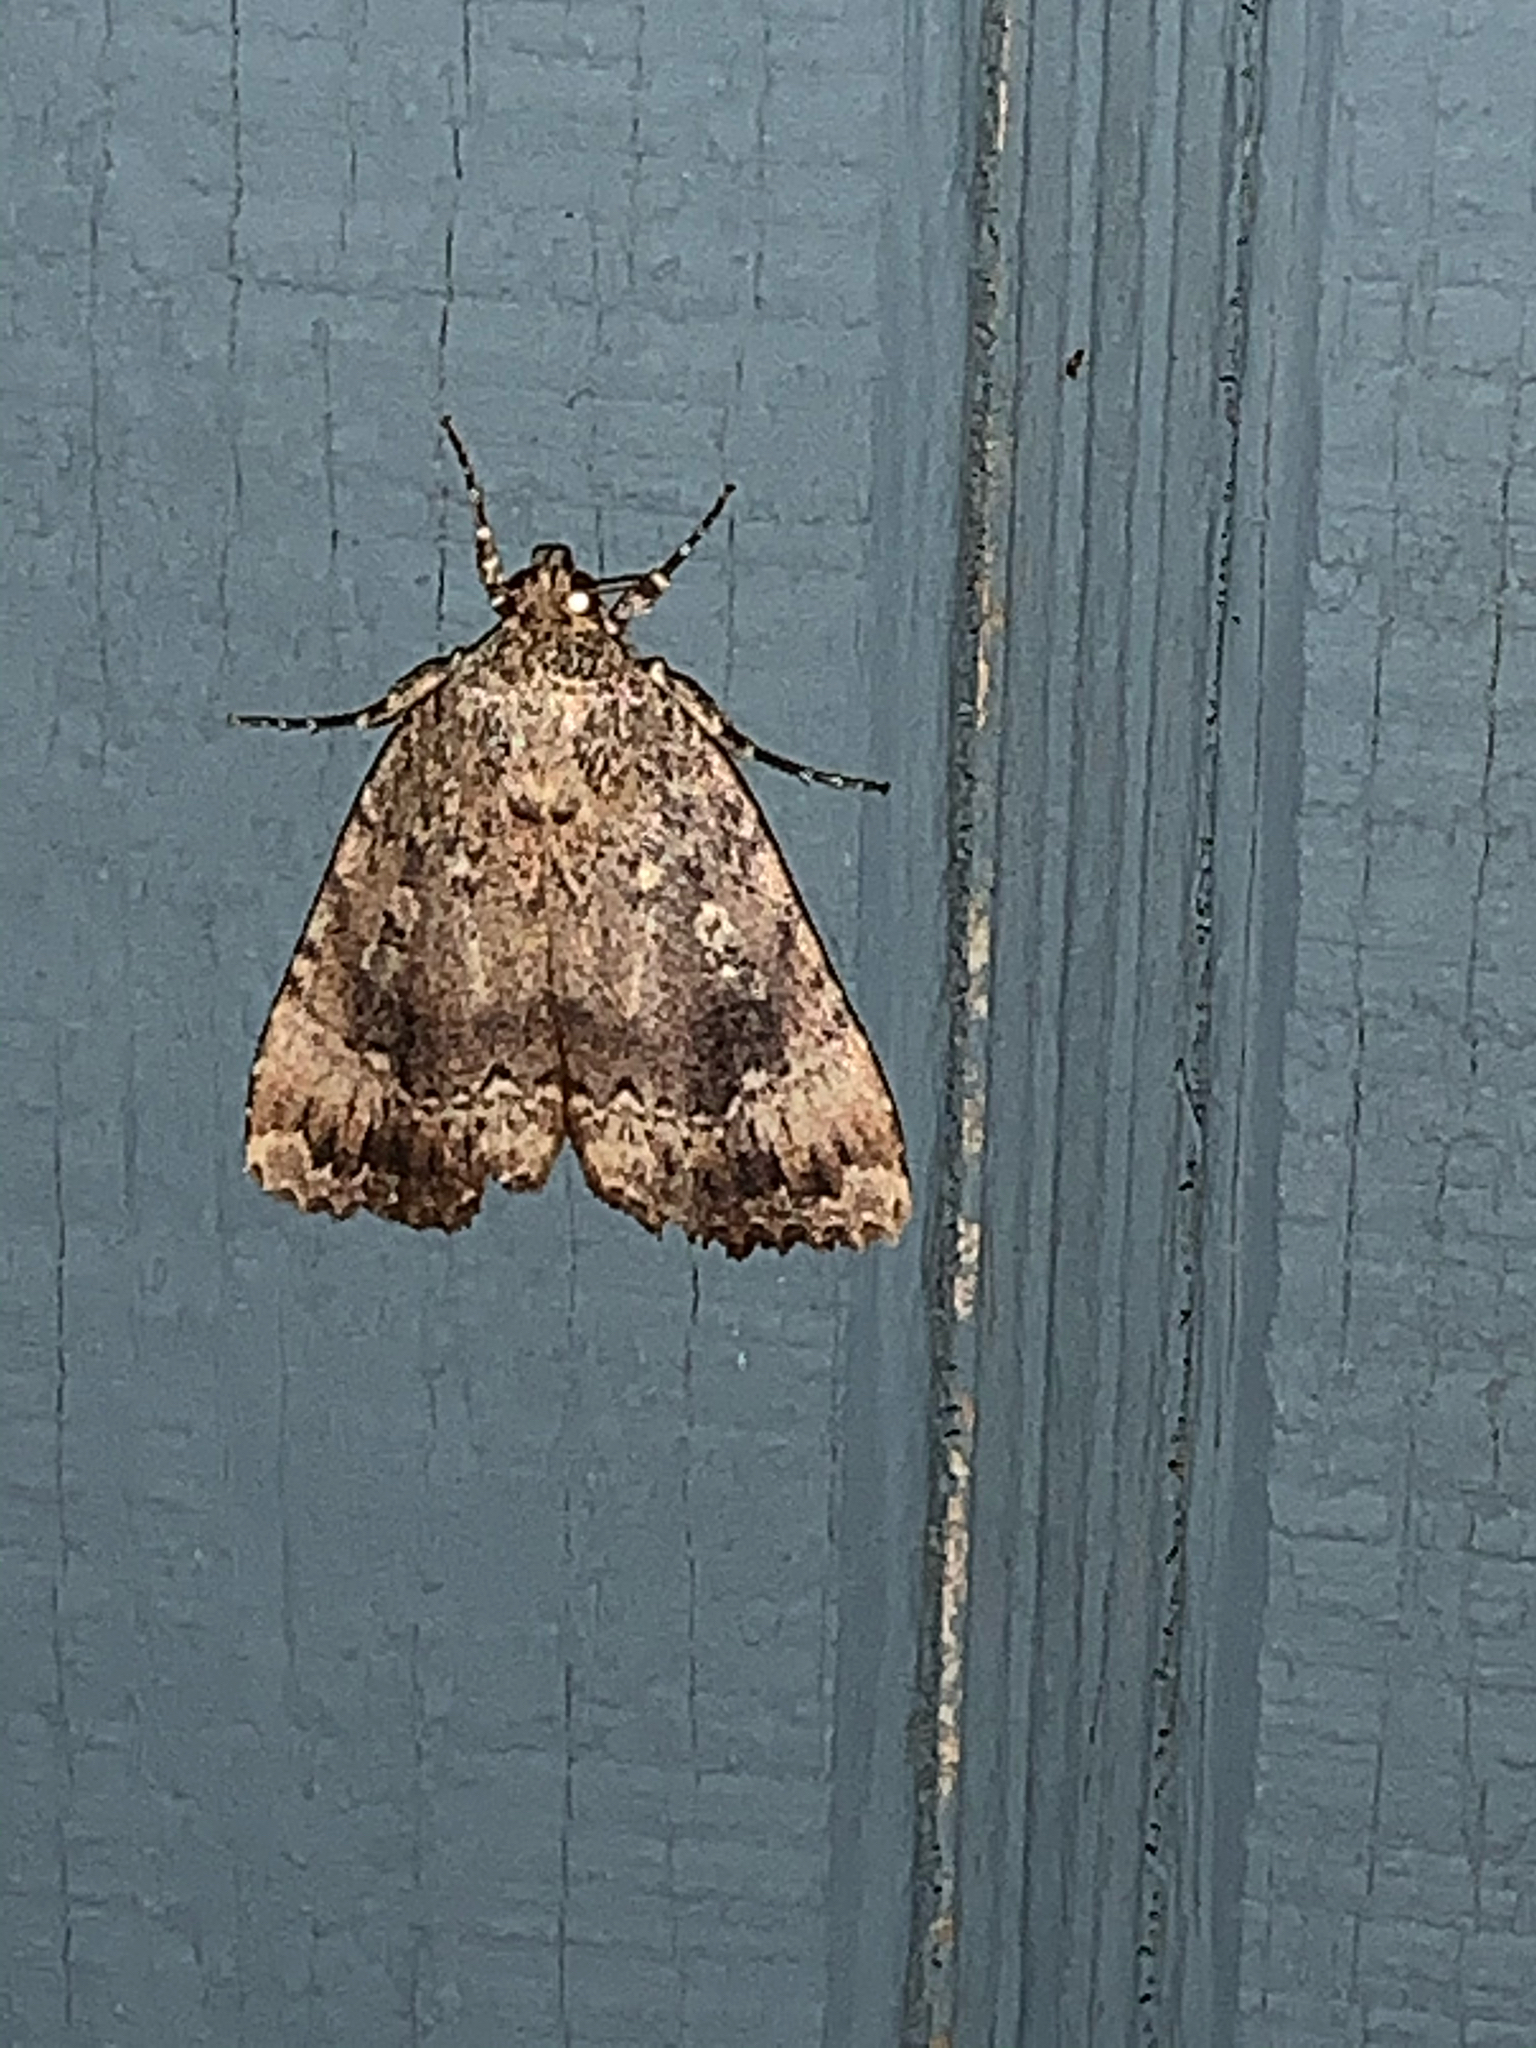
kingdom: Animalia
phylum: Arthropoda
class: Insecta
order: Lepidoptera
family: Noctuidae
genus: Amphipyra
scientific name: Amphipyra pyramidoides
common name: American copper underwing
